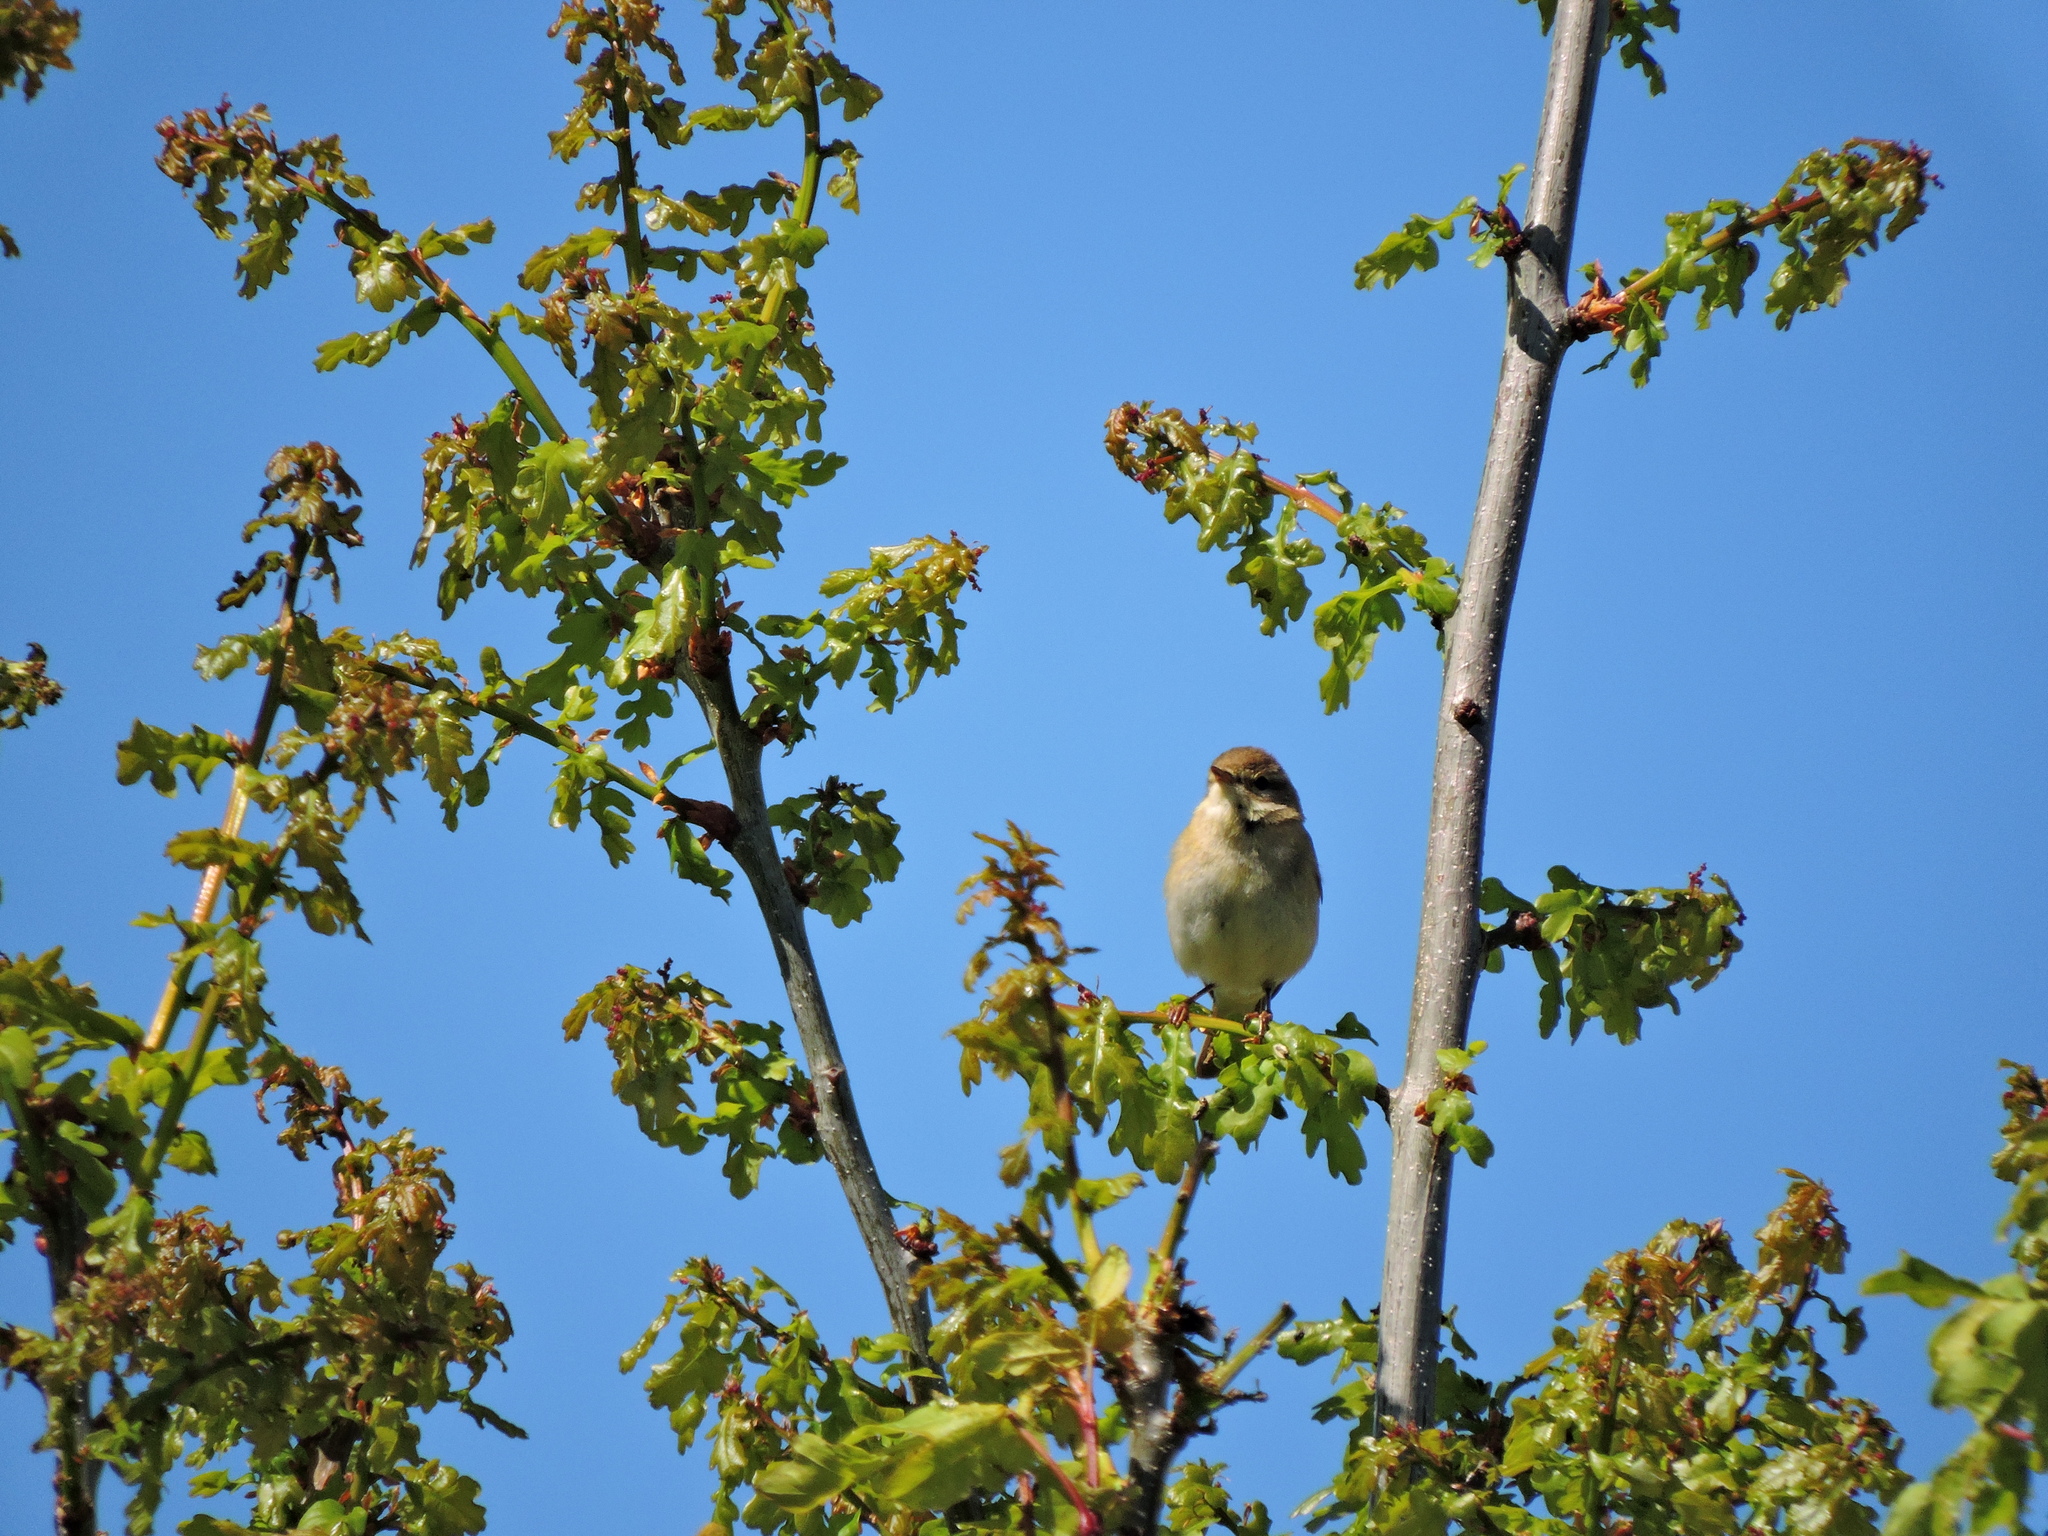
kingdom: Animalia
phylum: Chordata
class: Aves
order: Passeriformes
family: Phylloscopidae
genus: Phylloscopus
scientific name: Phylloscopus trochilus
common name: Willow warbler
